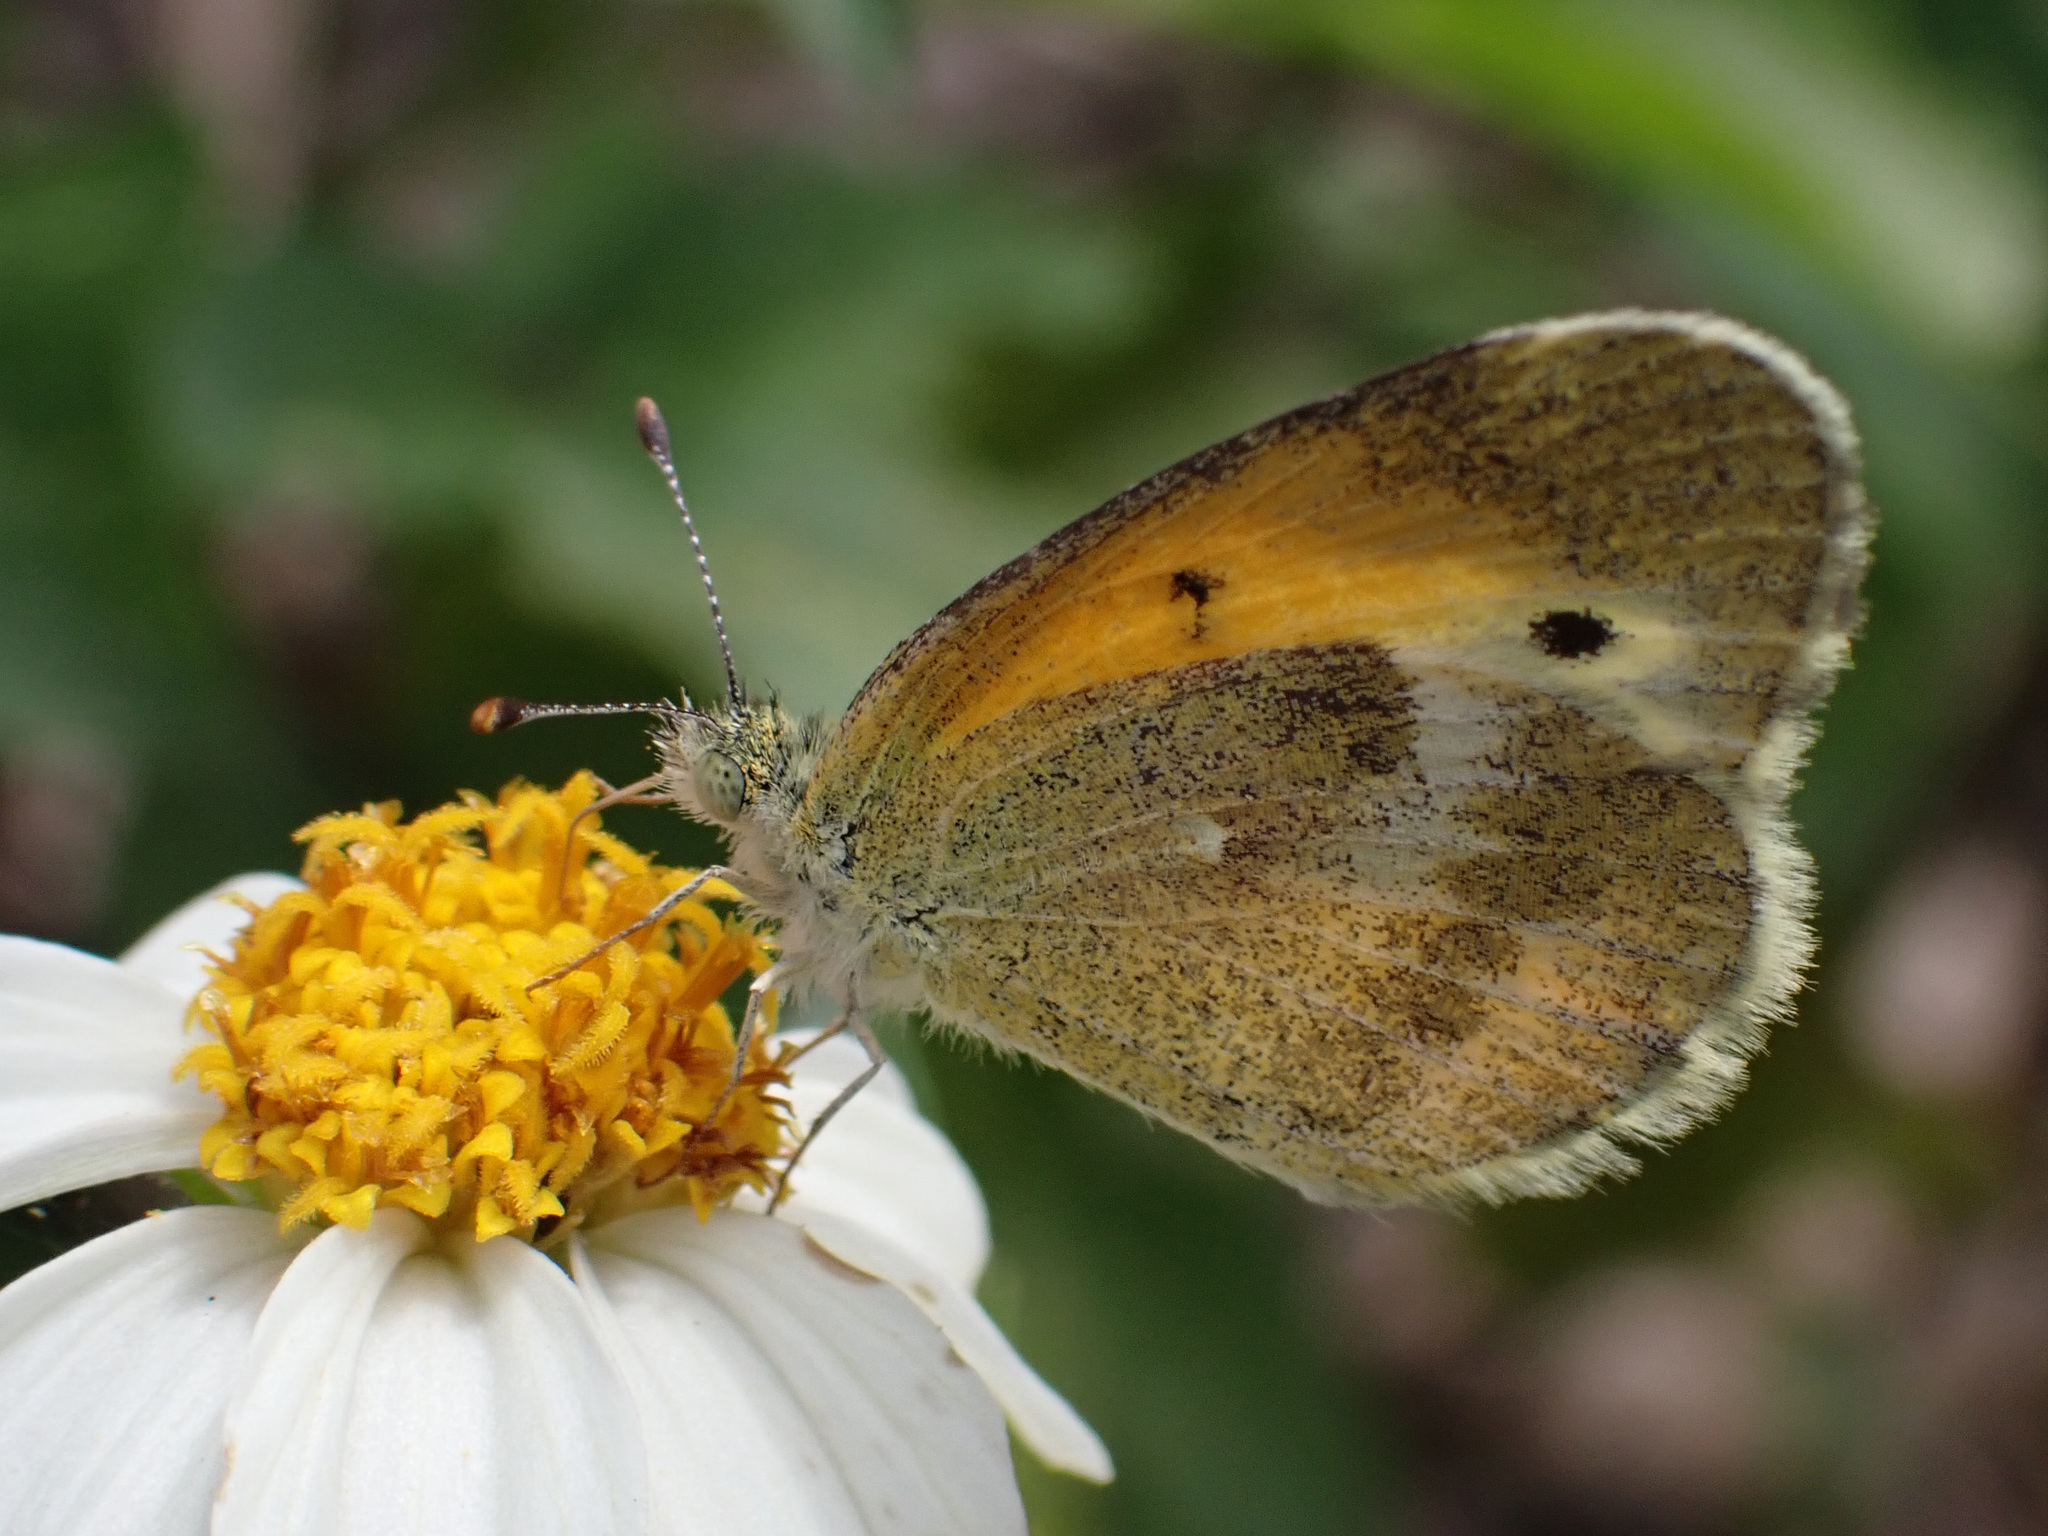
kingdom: Animalia
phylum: Arthropoda
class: Insecta
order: Lepidoptera
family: Pieridae
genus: Nathalis
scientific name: Nathalis iole
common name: Dainty sulphur
